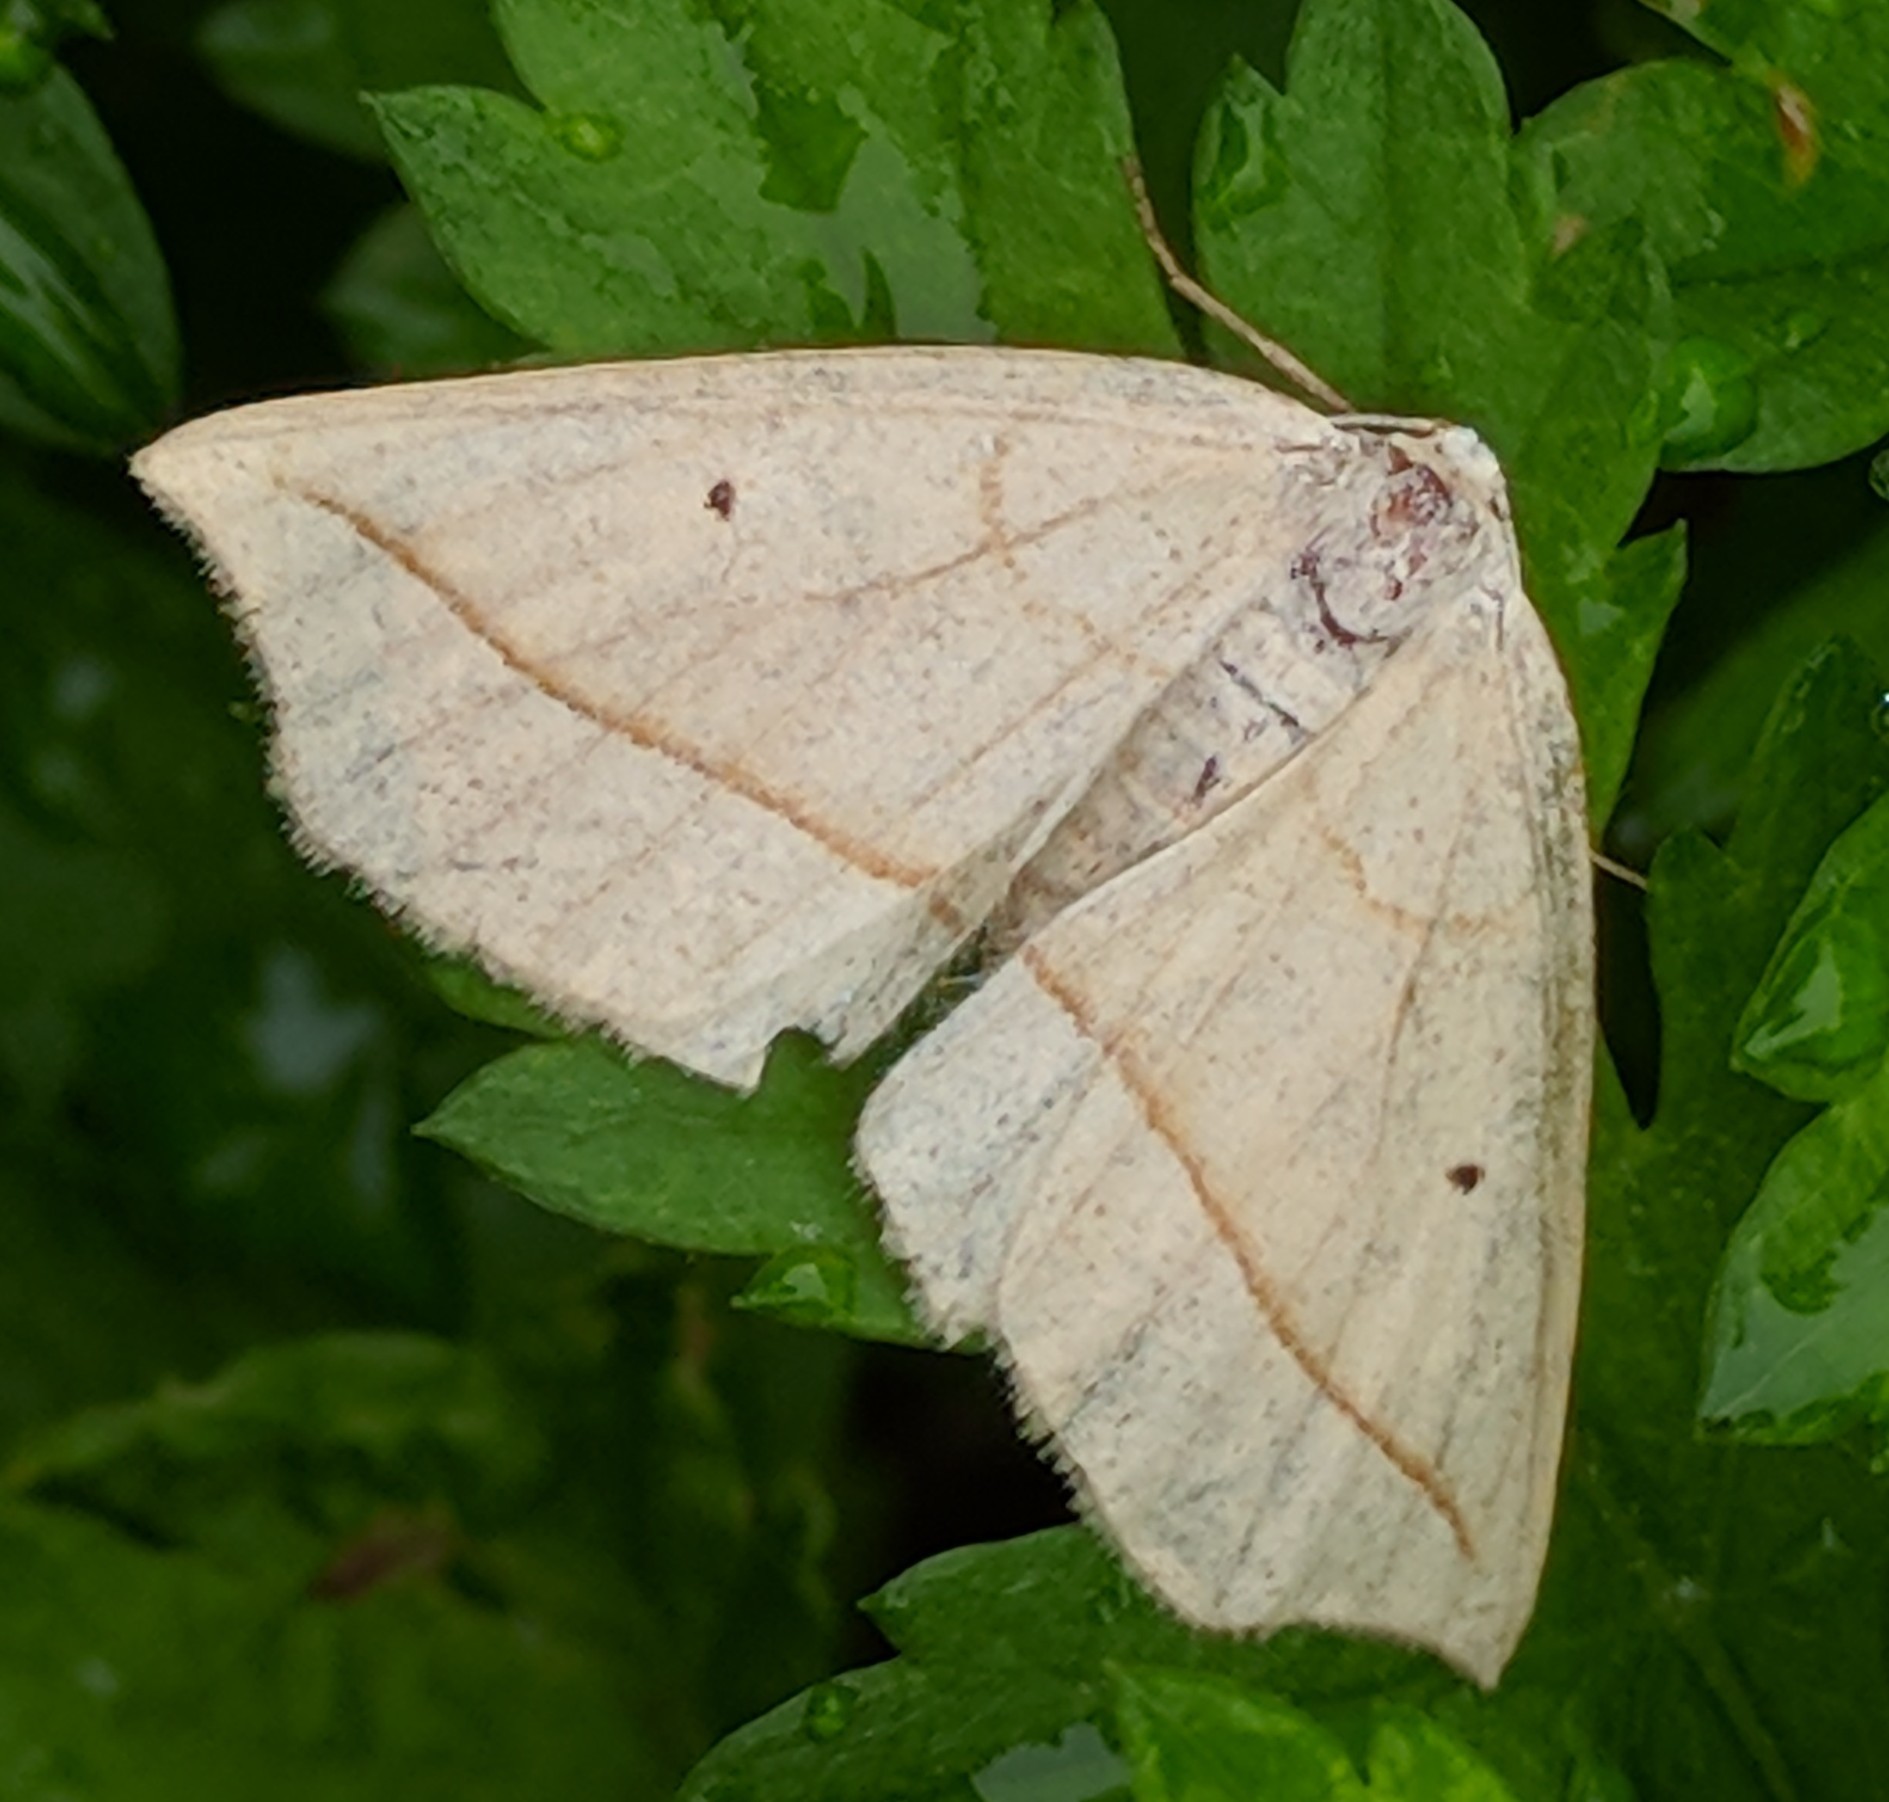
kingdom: Animalia
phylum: Arthropoda
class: Insecta
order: Lepidoptera
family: Geometridae
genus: Eusarca
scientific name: Eusarca confusaria
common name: Confused eusarca
